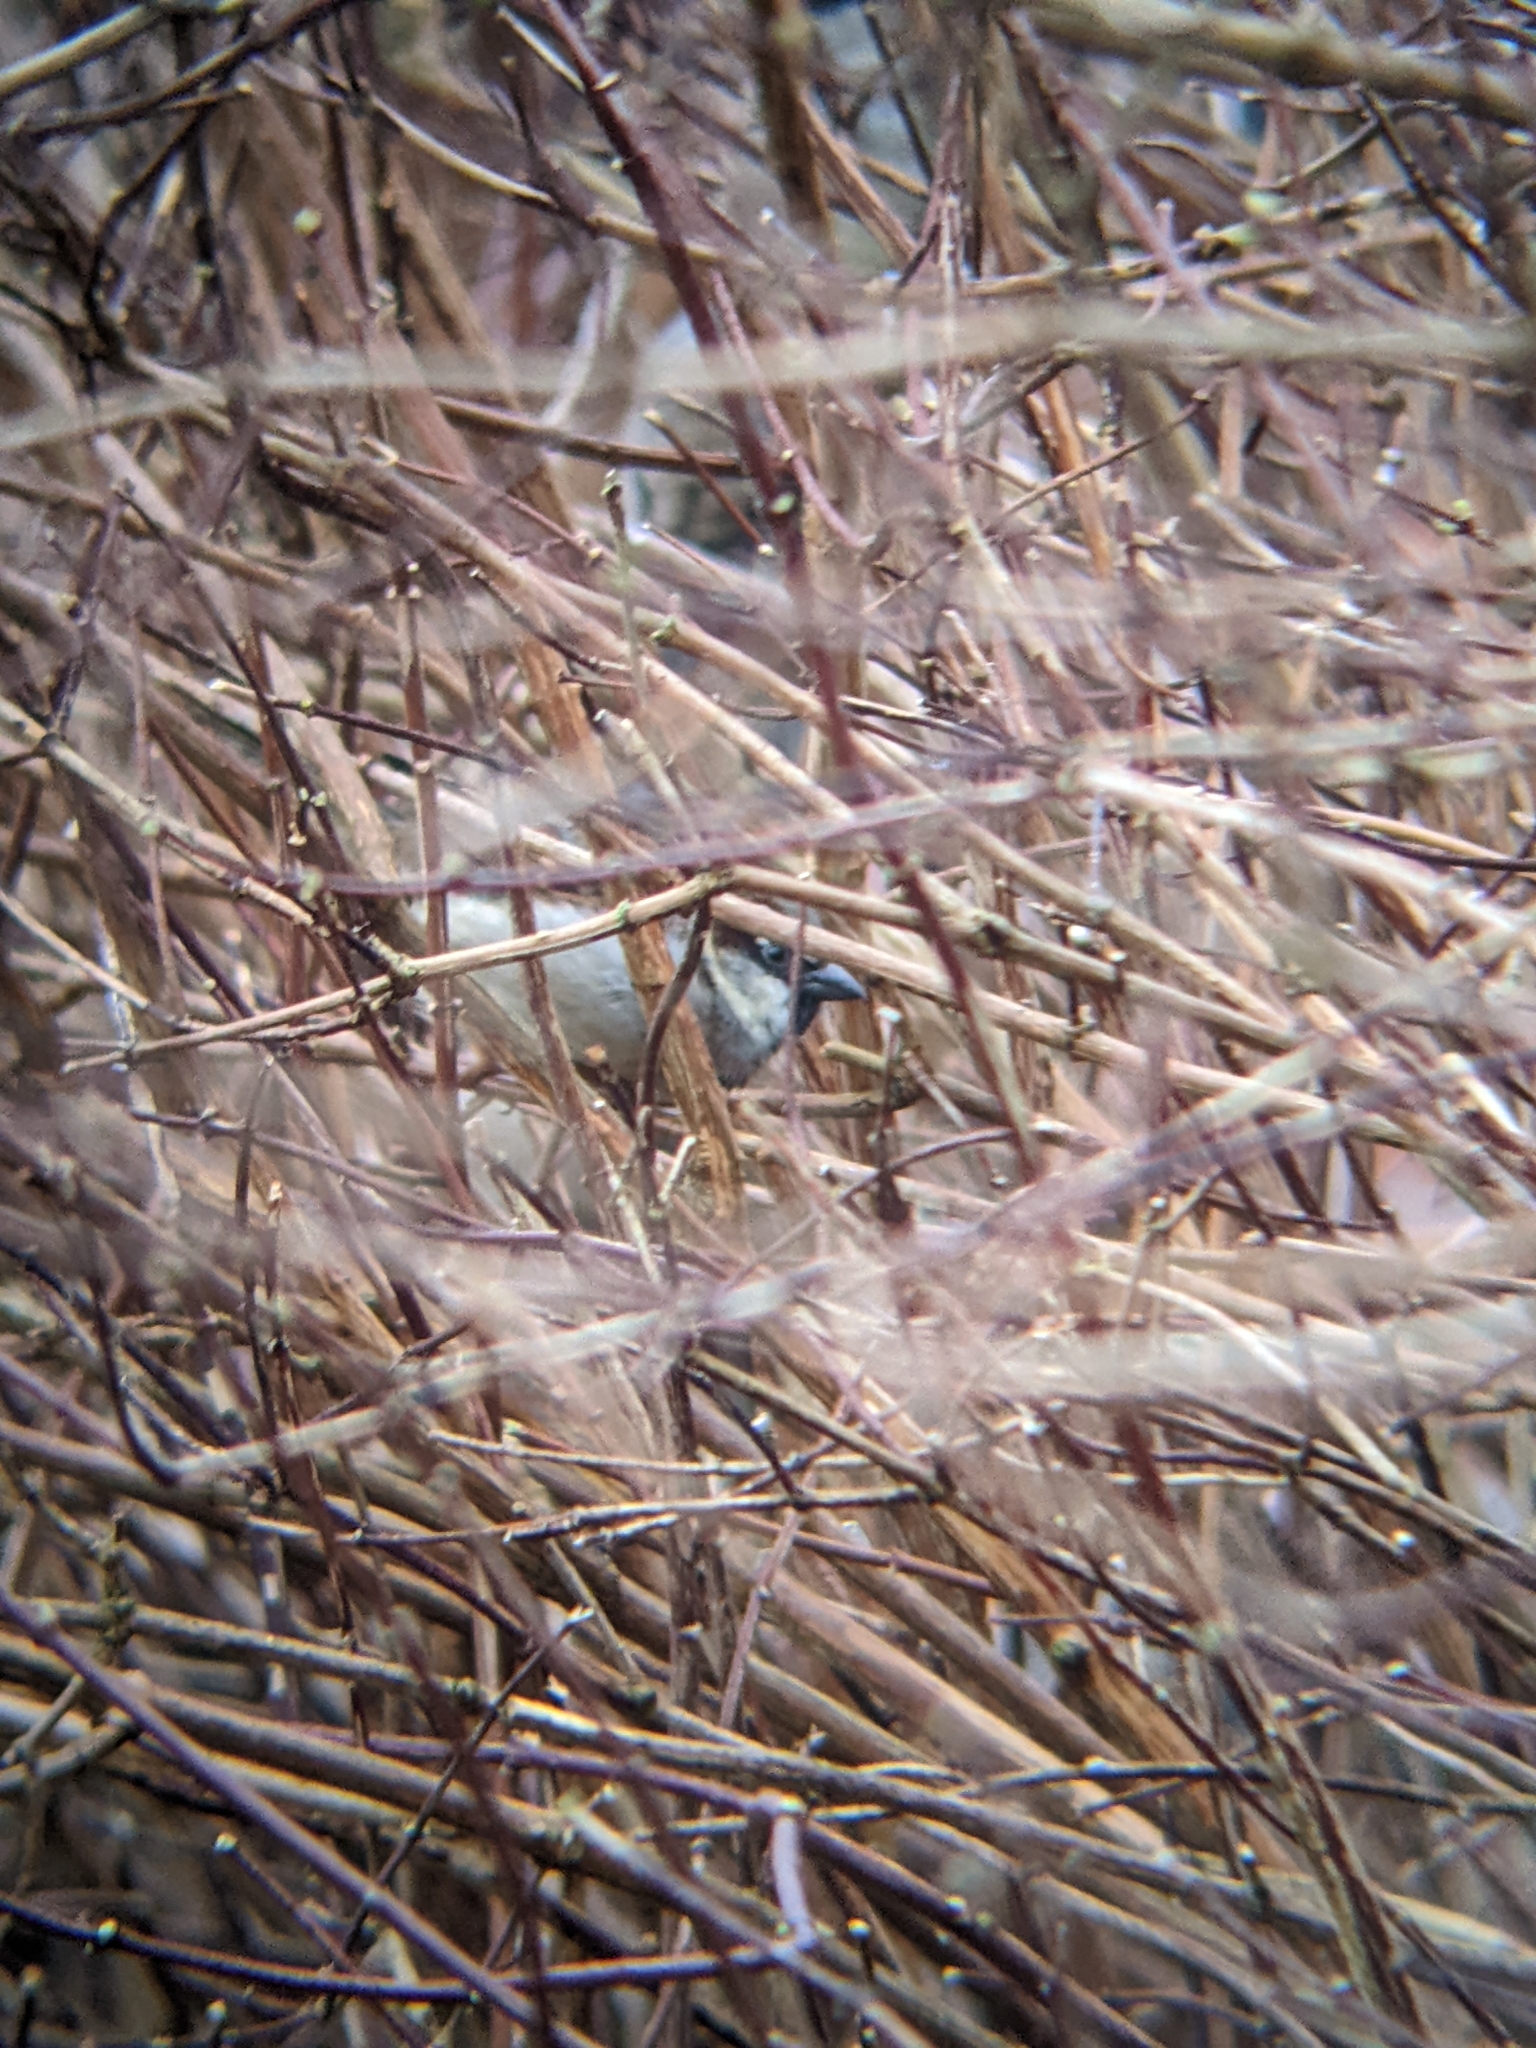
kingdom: Animalia
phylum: Chordata
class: Aves
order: Passeriformes
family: Passeridae
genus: Passer
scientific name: Passer domesticus
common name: House sparrow
